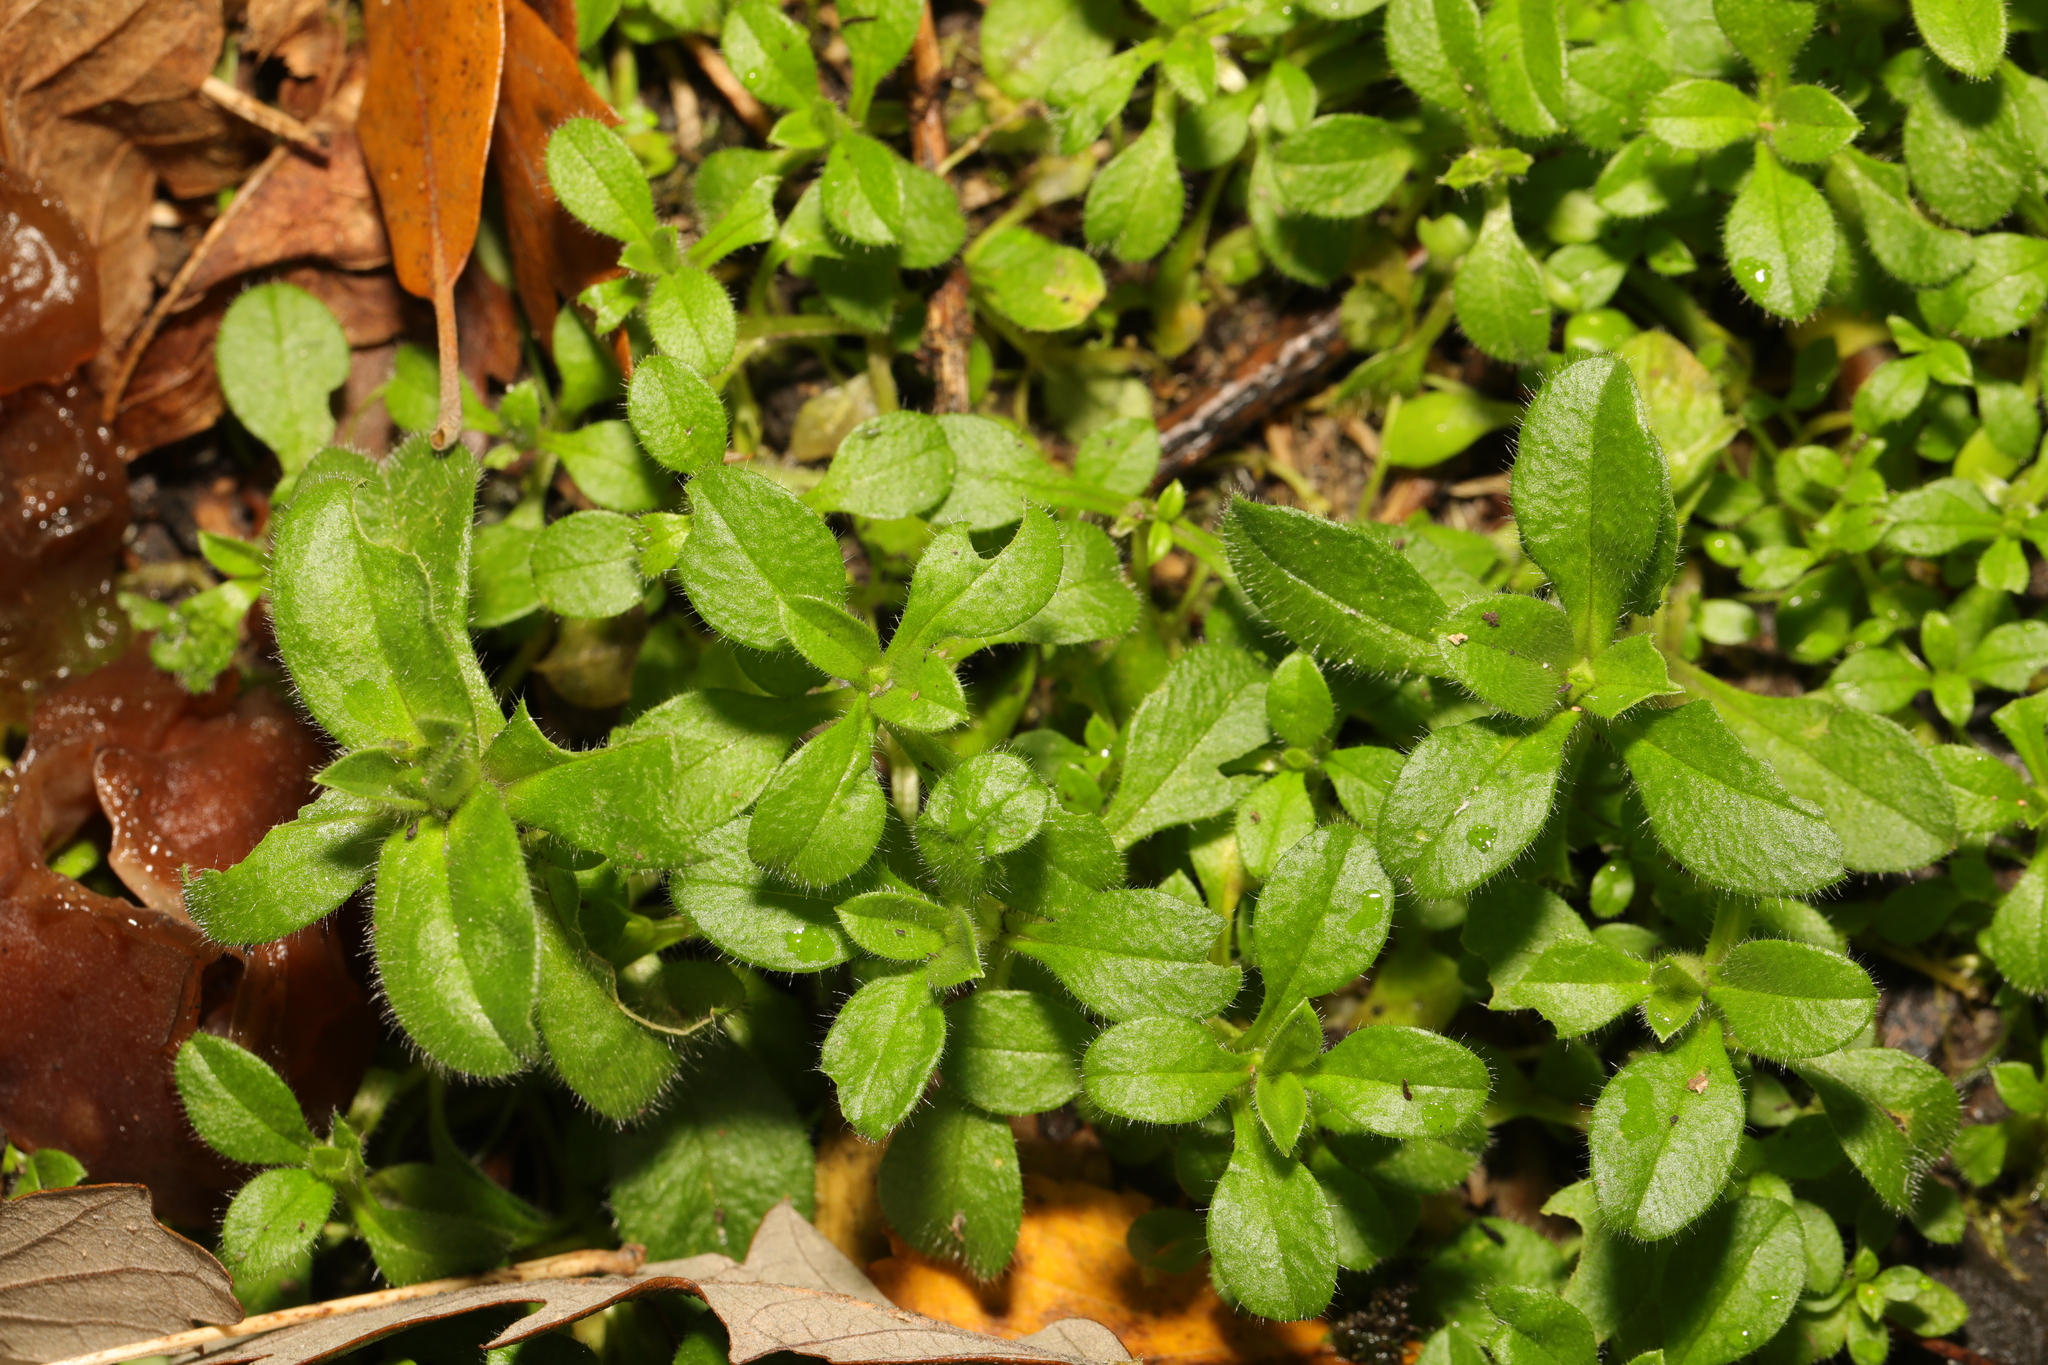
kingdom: Plantae
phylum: Tracheophyta
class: Magnoliopsida
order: Caryophyllales
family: Caryophyllaceae
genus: Cerastium
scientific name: Cerastium fontanum
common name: Common mouse-ear
